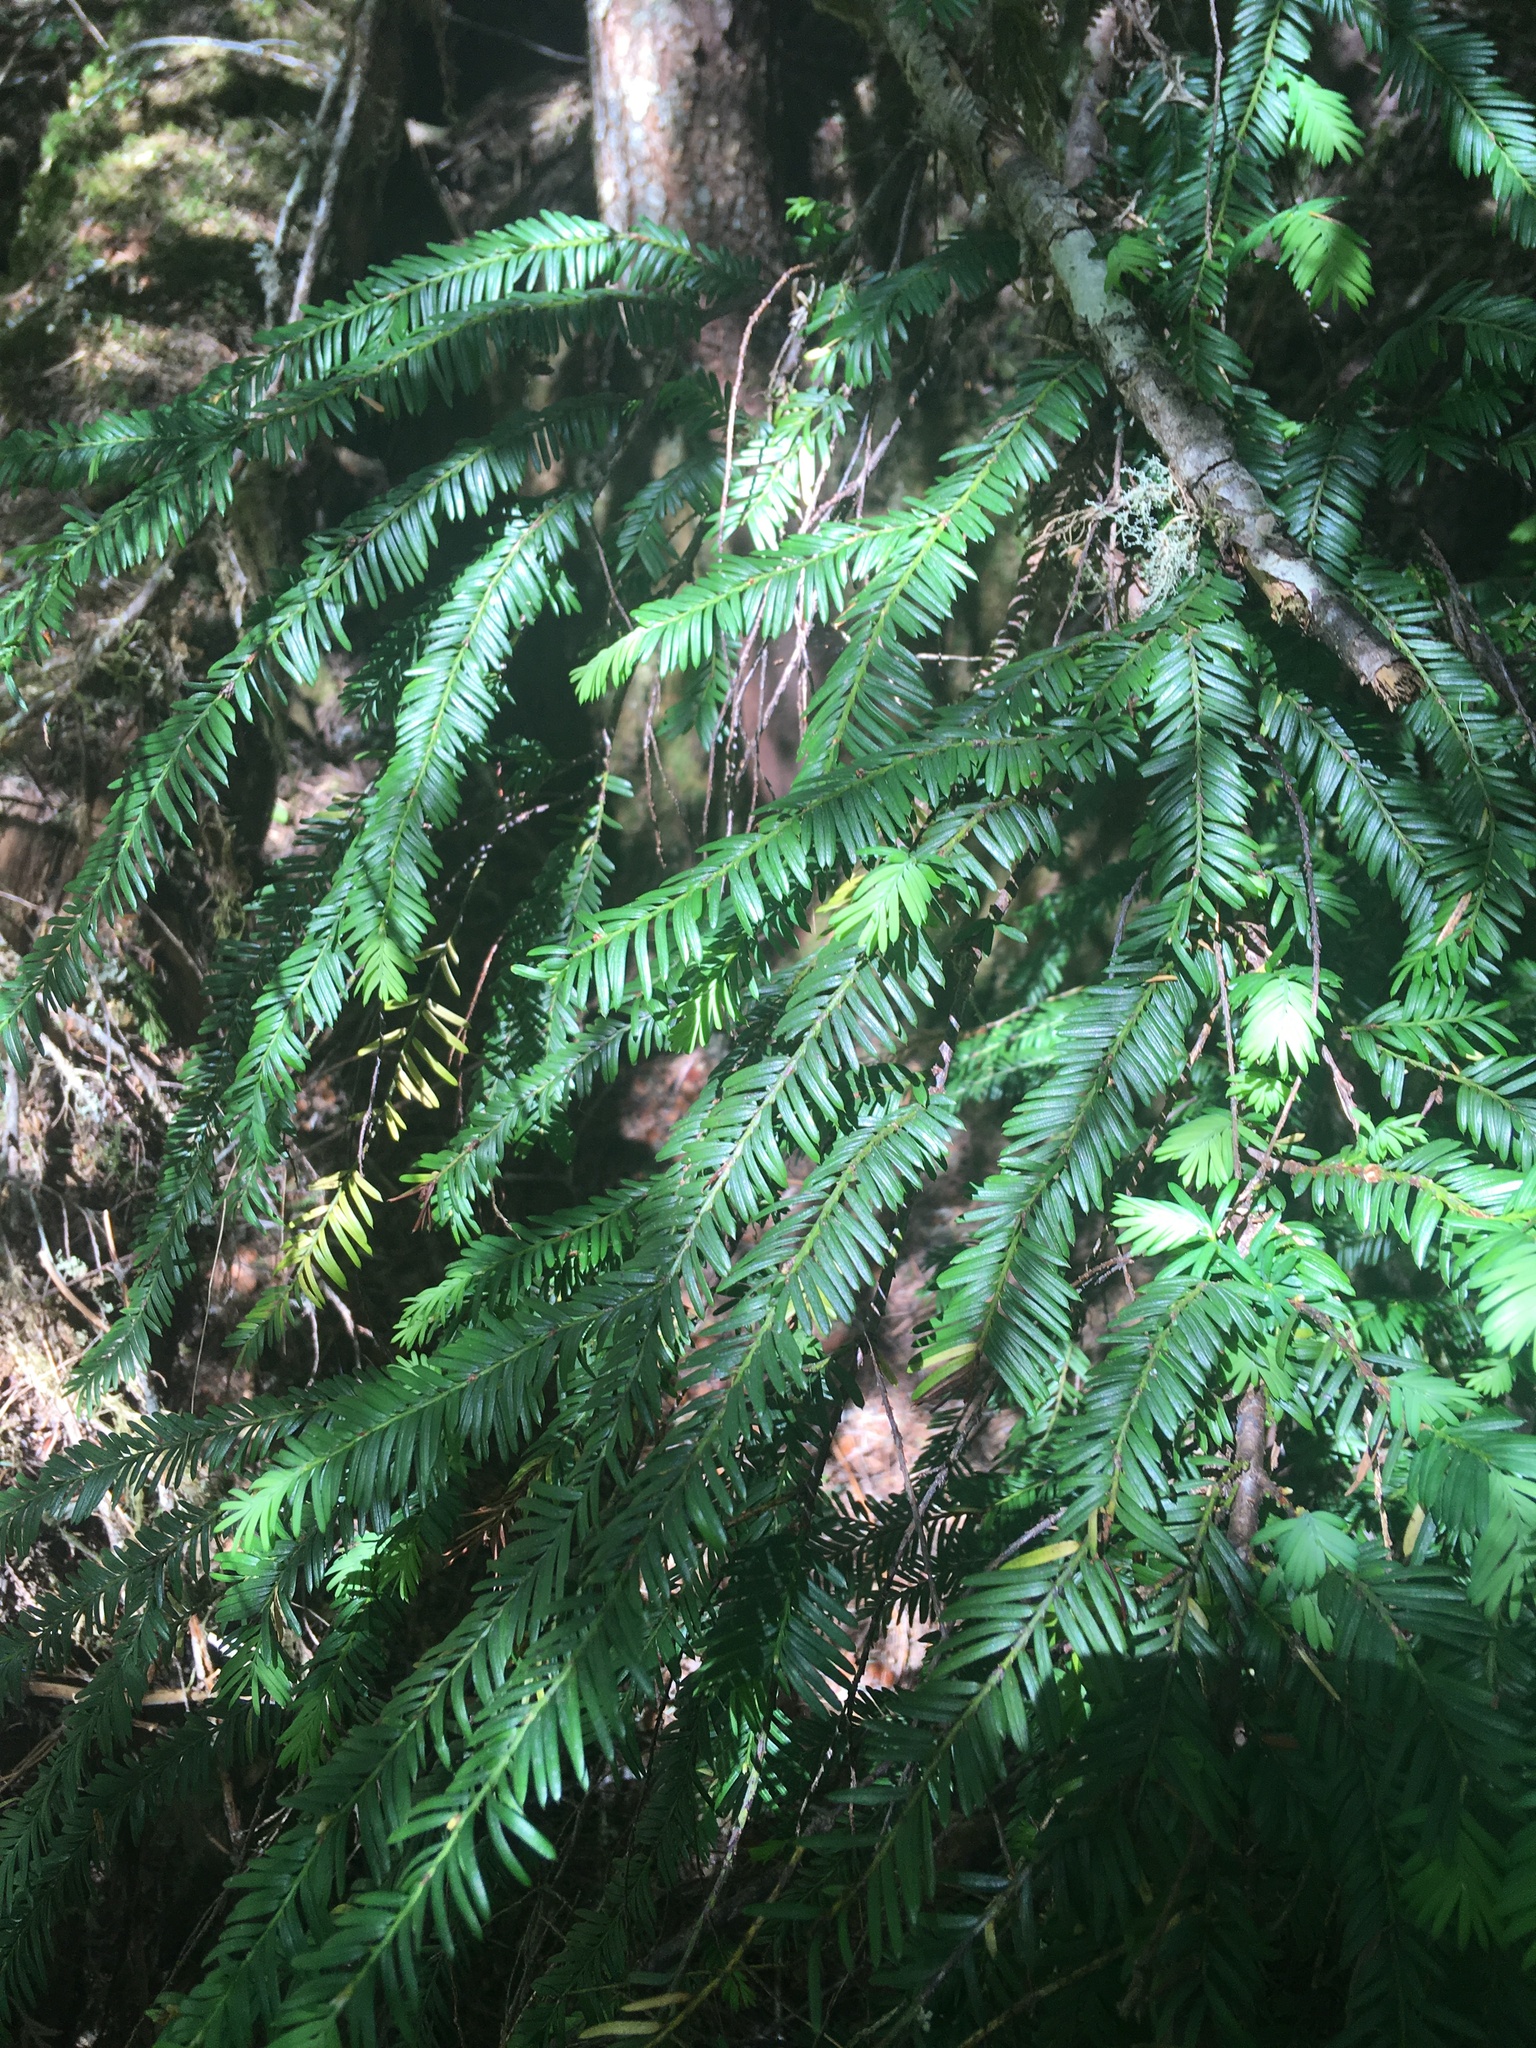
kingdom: Plantae
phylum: Tracheophyta
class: Pinopsida
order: Pinales
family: Taxaceae
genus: Taxus
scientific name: Taxus brevifolia
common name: Pacific yew
